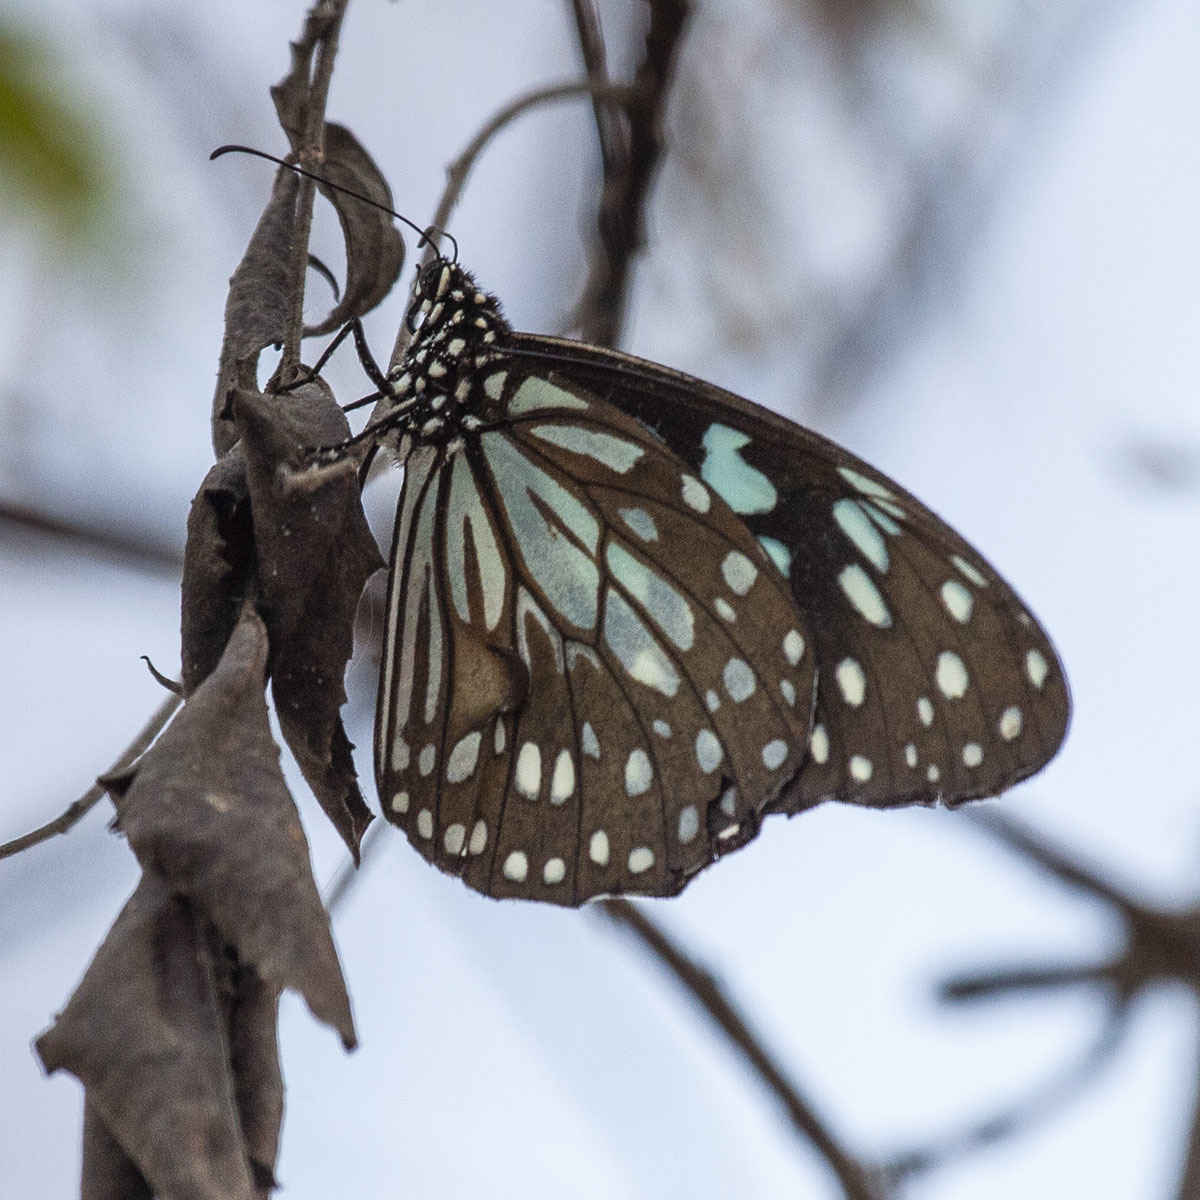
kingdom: Animalia
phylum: Arthropoda
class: Insecta
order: Lepidoptera
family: Nymphalidae
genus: Tirumala
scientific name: Tirumala limniace
